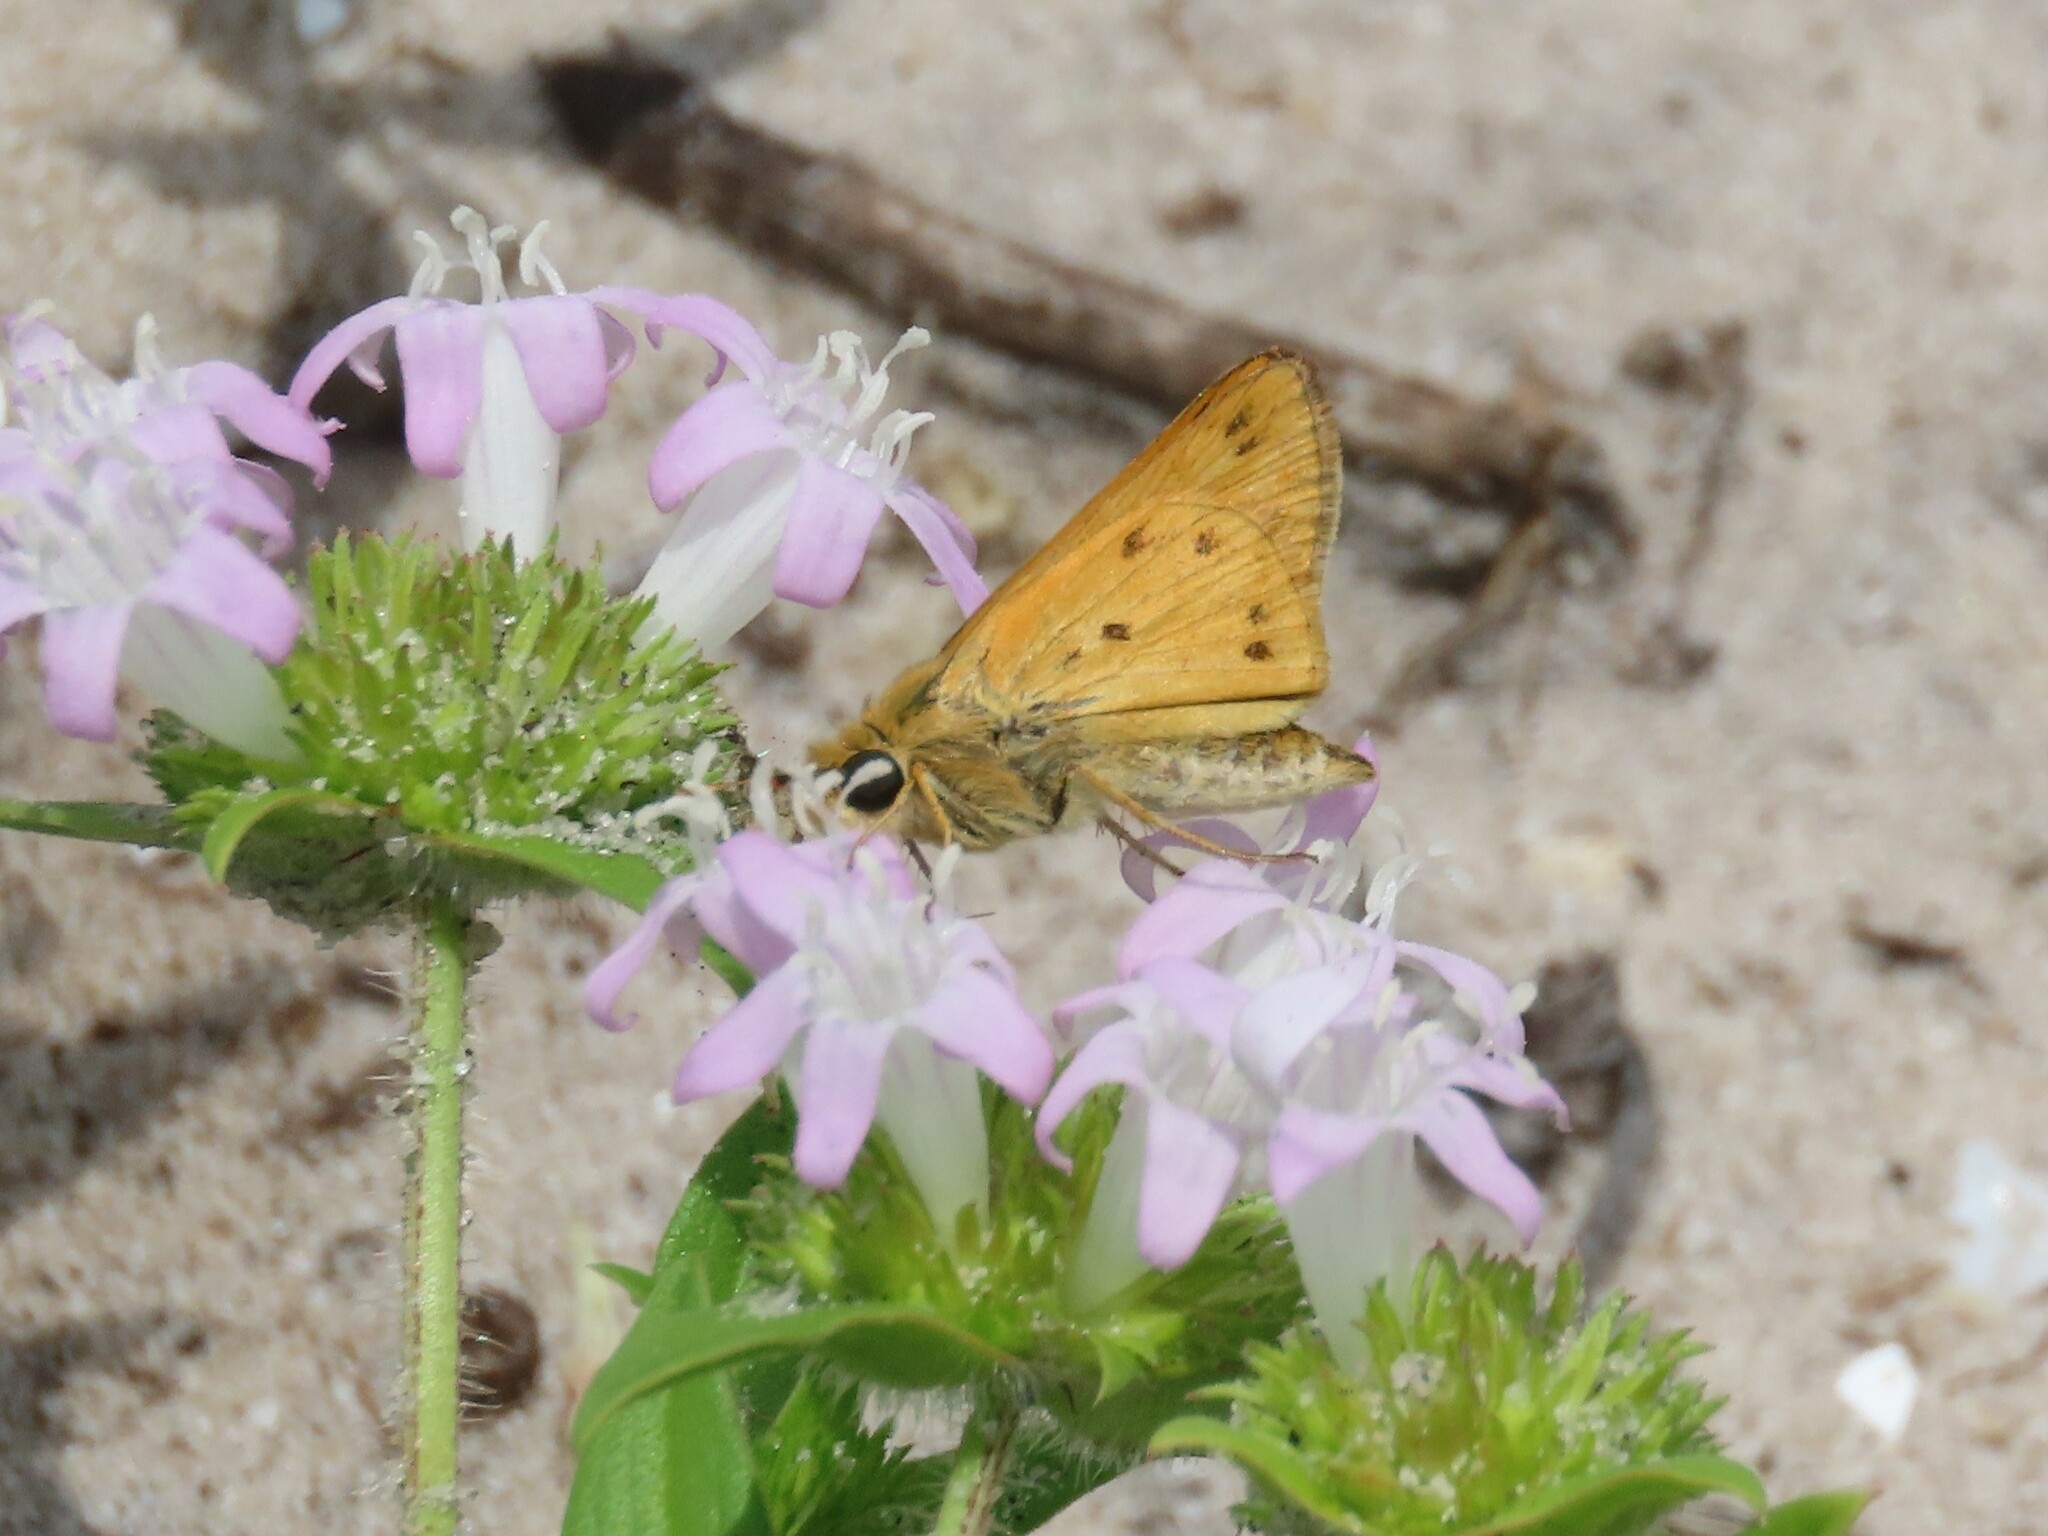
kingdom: Animalia
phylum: Arthropoda
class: Insecta
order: Lepidoptera
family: Hesperiidae
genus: Hylephila
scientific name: Hylephila phyleus
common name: Fiery skipper
